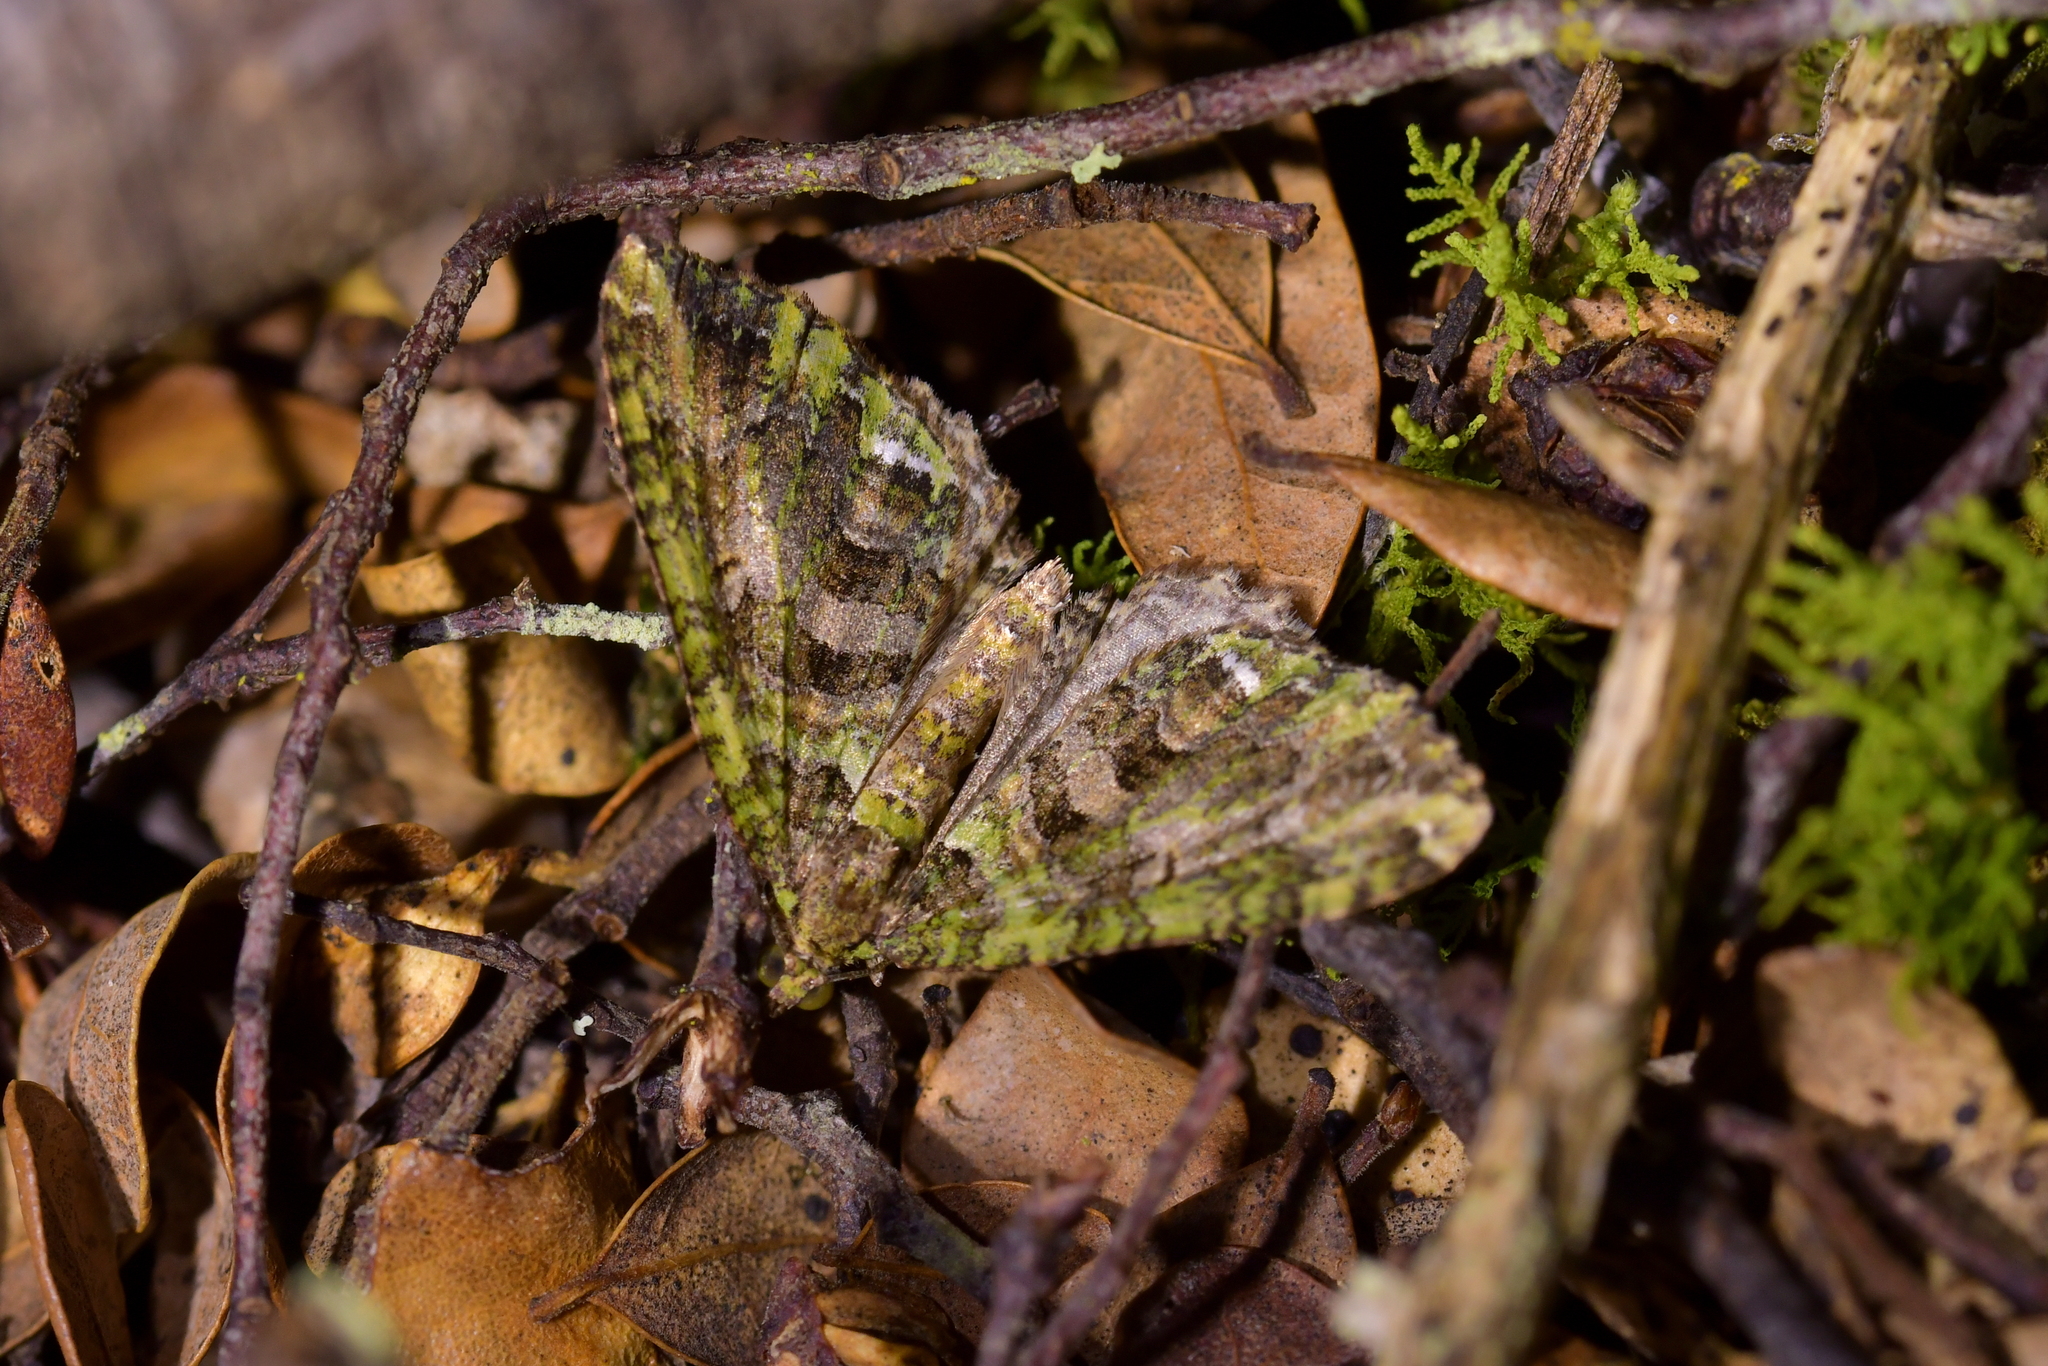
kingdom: Animalia
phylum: Arthropoda
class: Insecta
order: Lepidoptera
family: Geometridae
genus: Austrocidaria
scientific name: Austrocidaria similata
